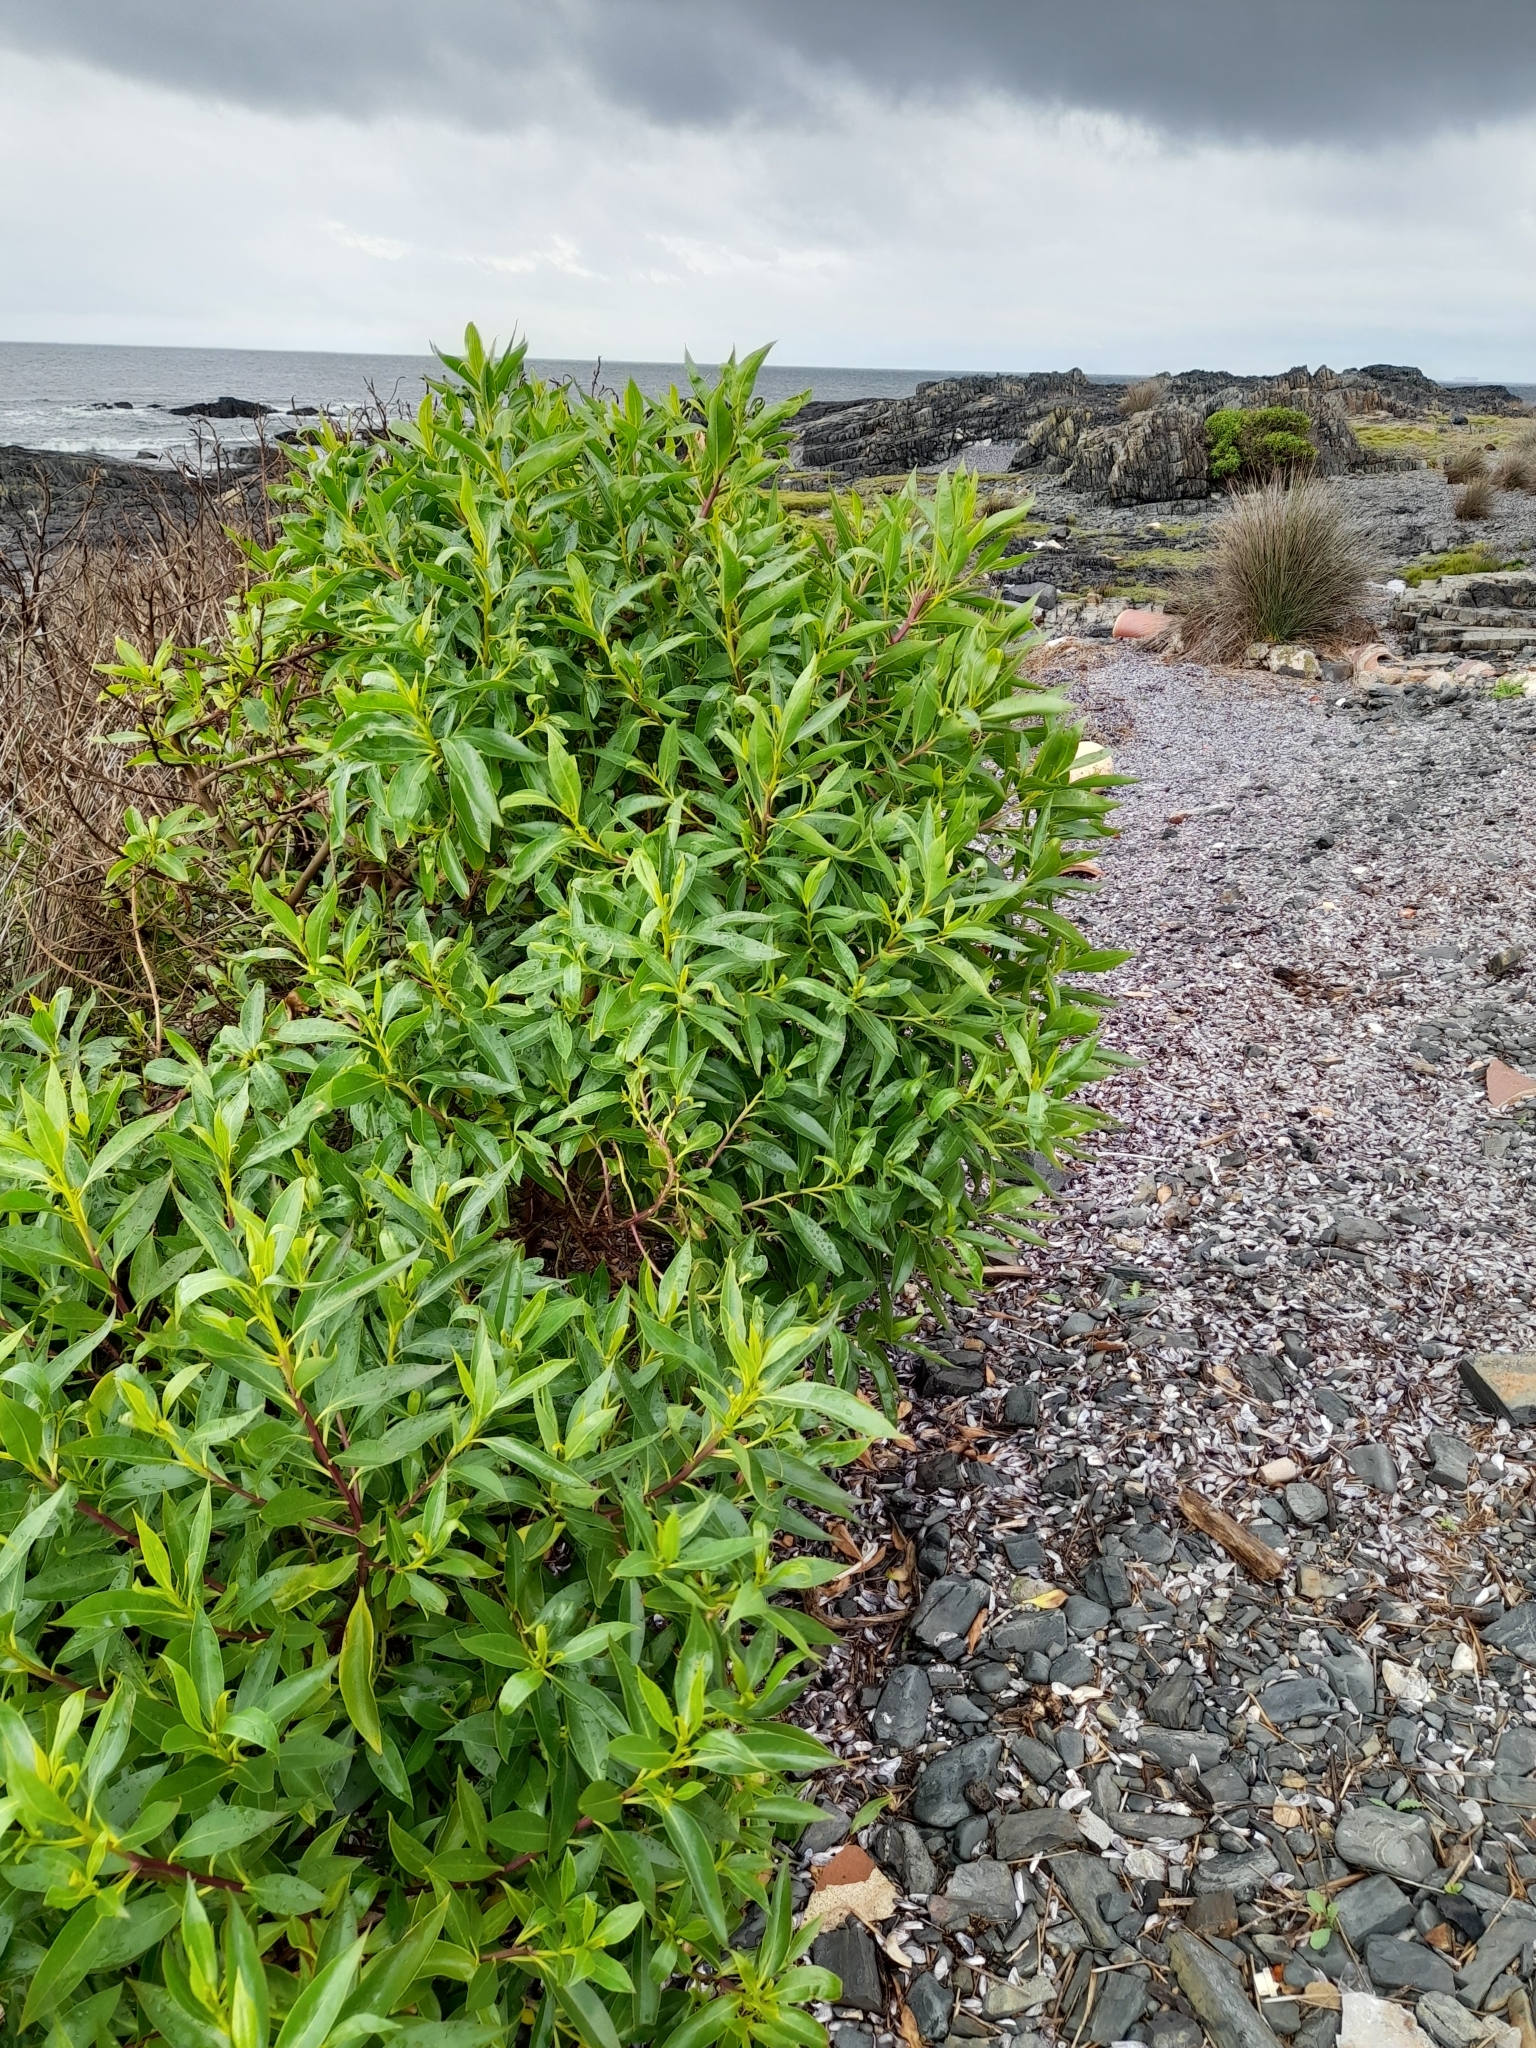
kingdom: Plantae
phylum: Tracheophyta
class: Magnoliopsida
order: Lamiales
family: Scrophulariaceae
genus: Myoporum
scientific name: Myoporum laetum
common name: Ngaio tree
